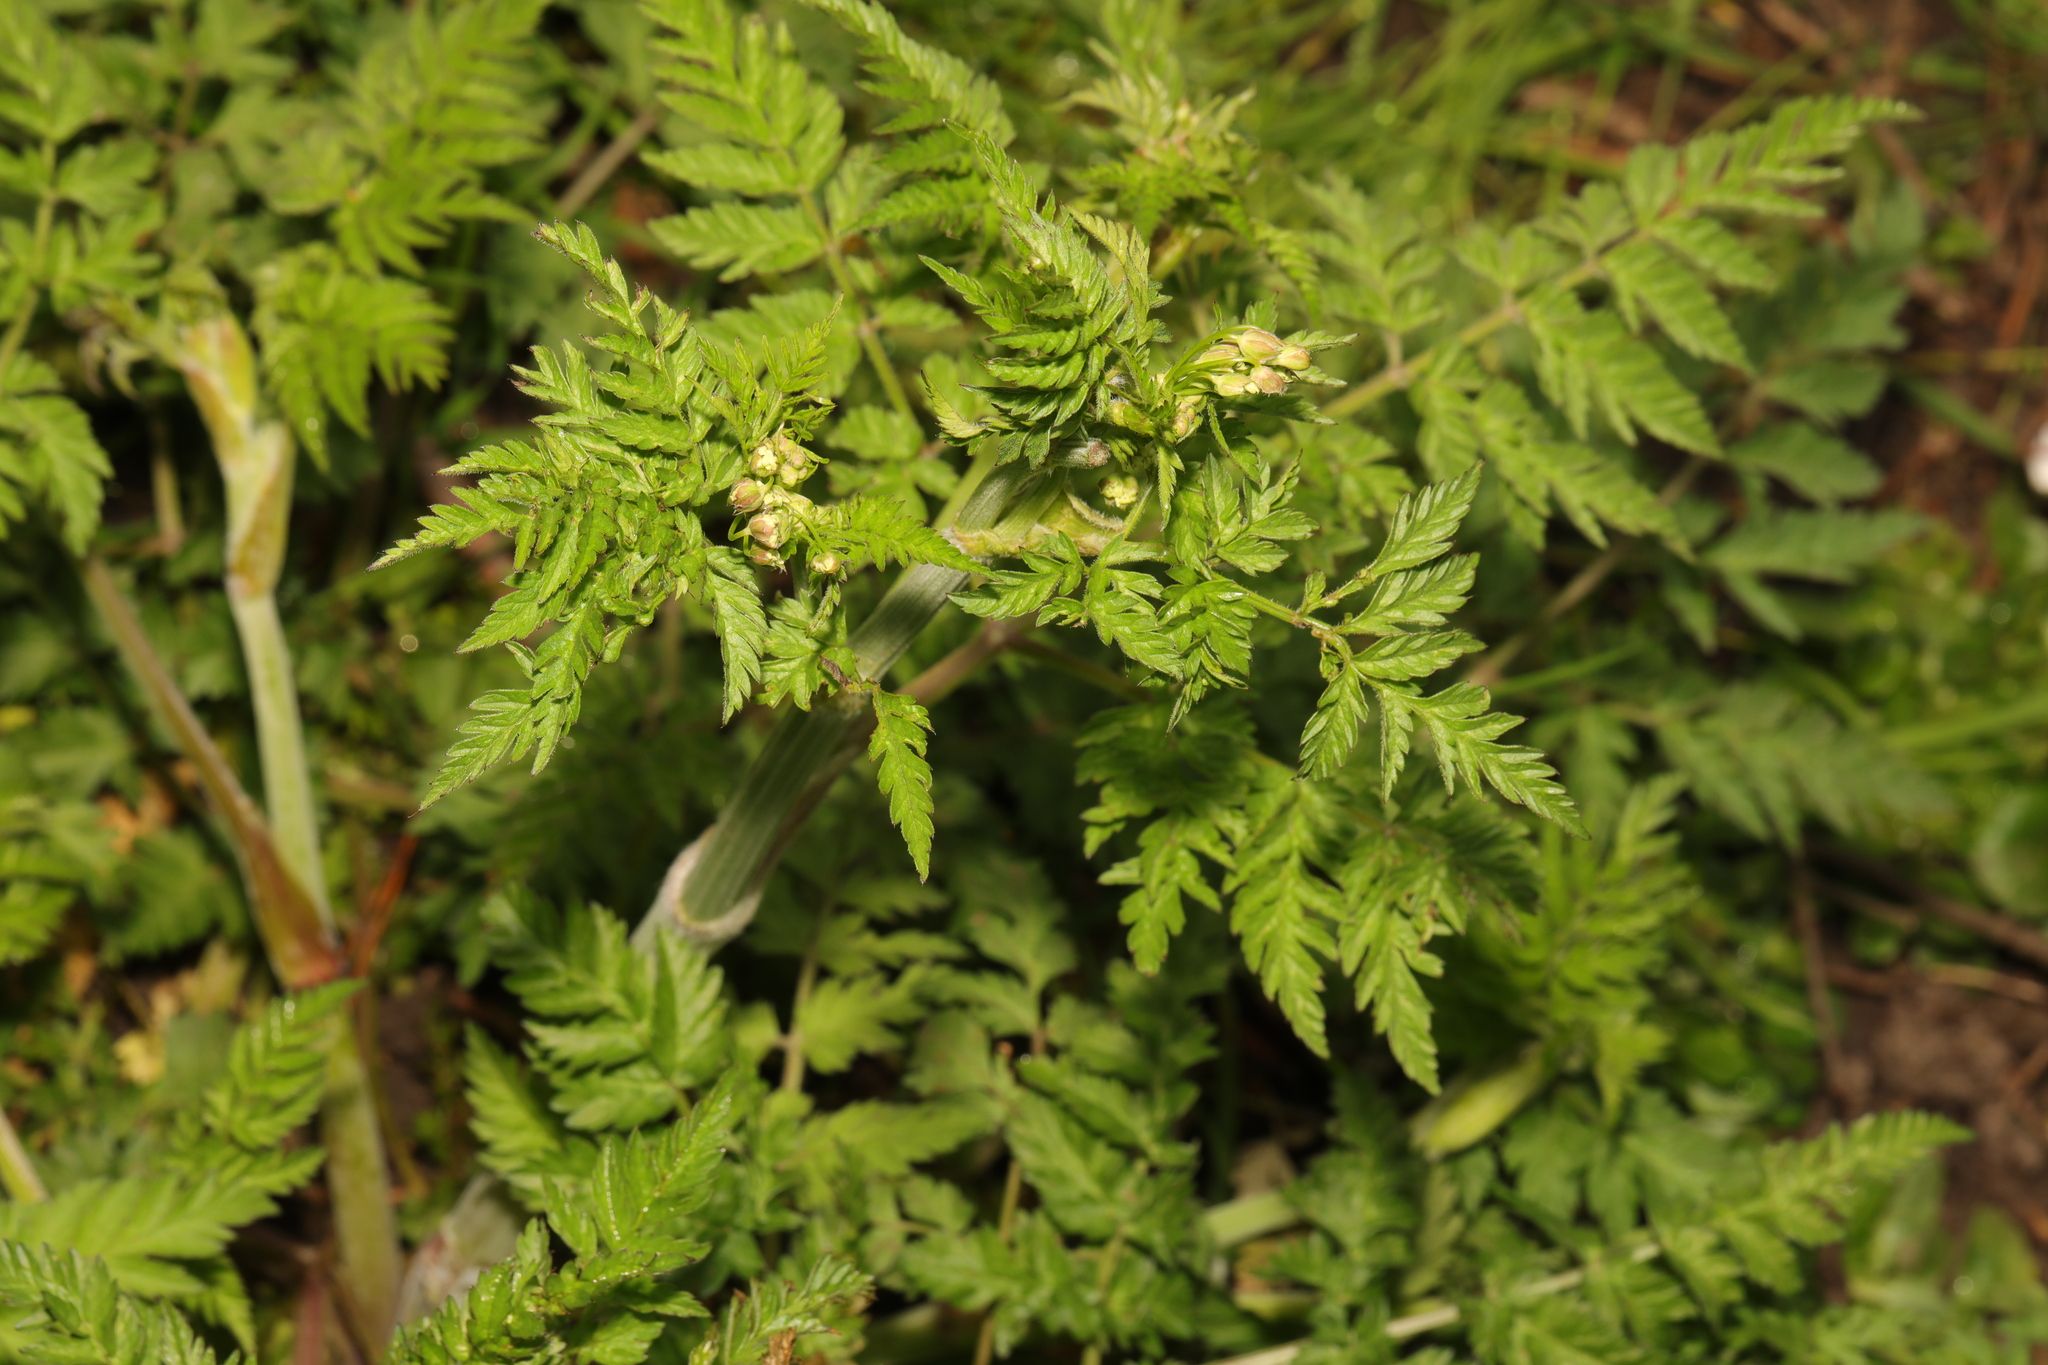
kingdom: Plantae
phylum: Tracheophyta
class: Magnoliopsida
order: Apiales
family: Apiaceae
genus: Anthriscus
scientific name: Anthriscus sylvestris
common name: Cow parsley
